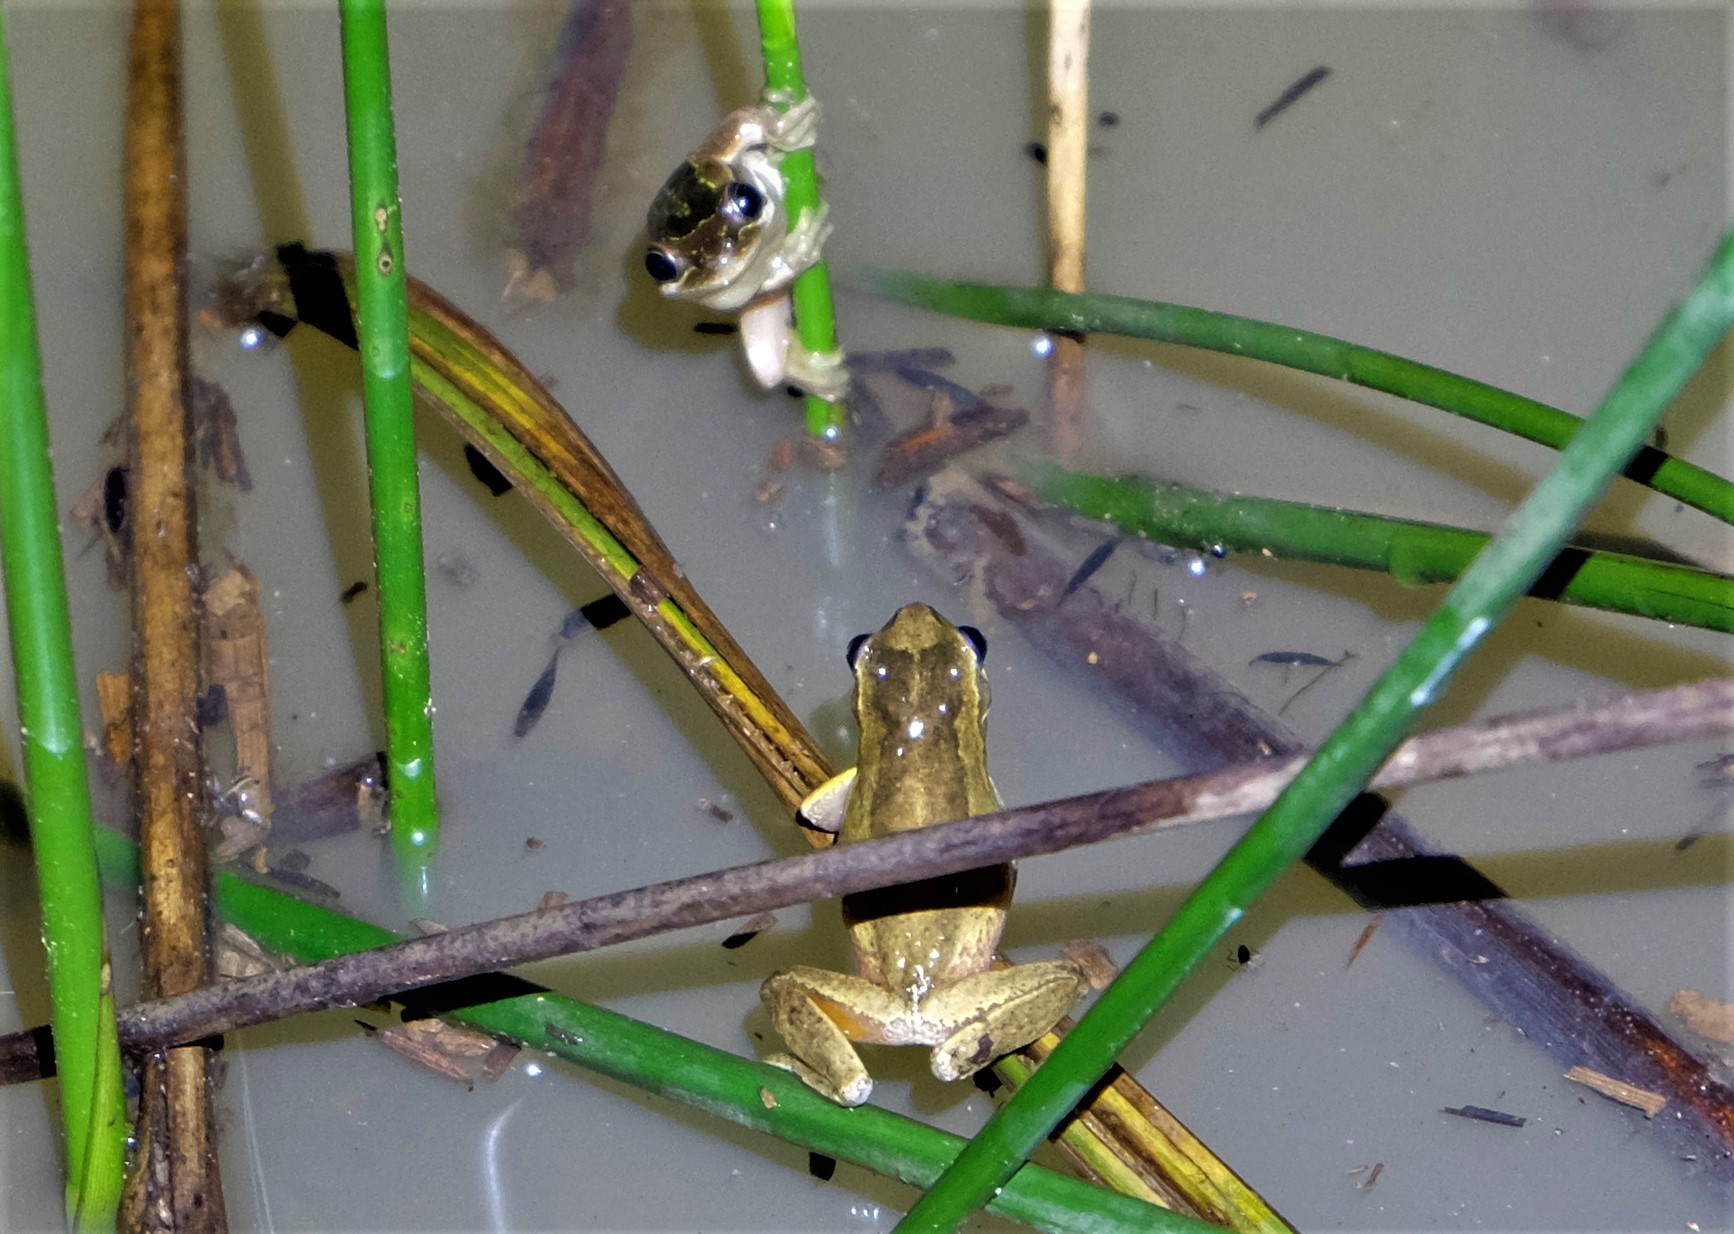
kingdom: Animalia
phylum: Chordata
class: Amphibia
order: Anura
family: Pelodryadidae
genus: Litoria
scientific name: Litoria ewingii
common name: Southern brown tree frog
